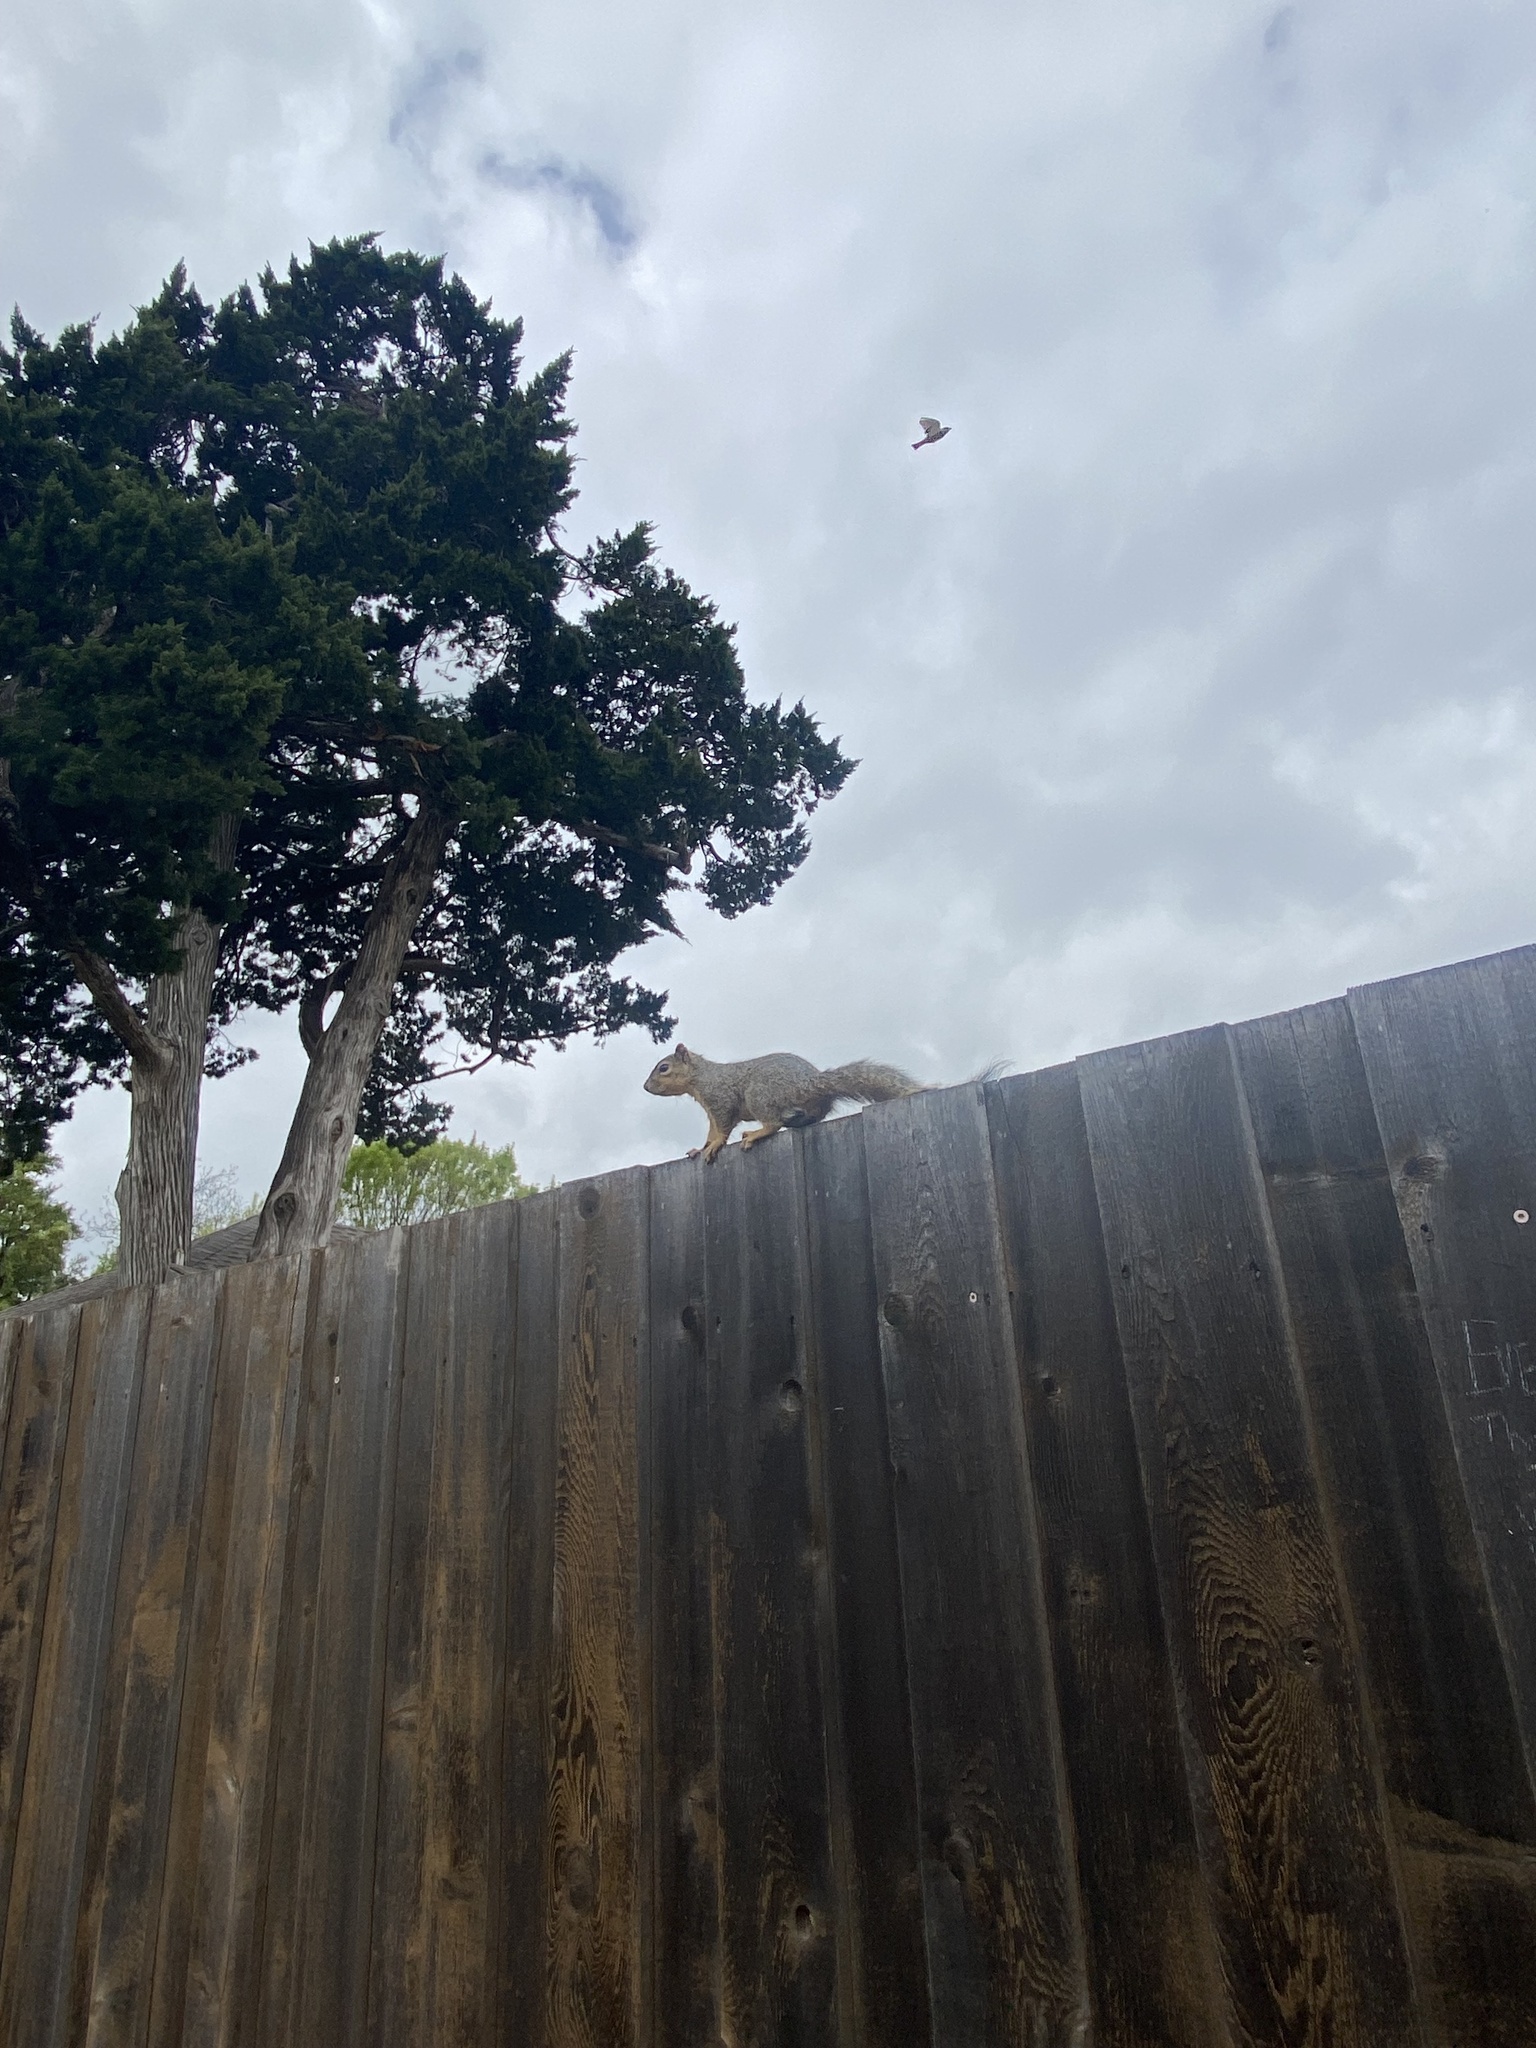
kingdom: Animalia
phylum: Chordata
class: Mammalia
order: Rodentia
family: Sciuridae
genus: Sciurus
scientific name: Sciurus niger
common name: Fox squirrel
